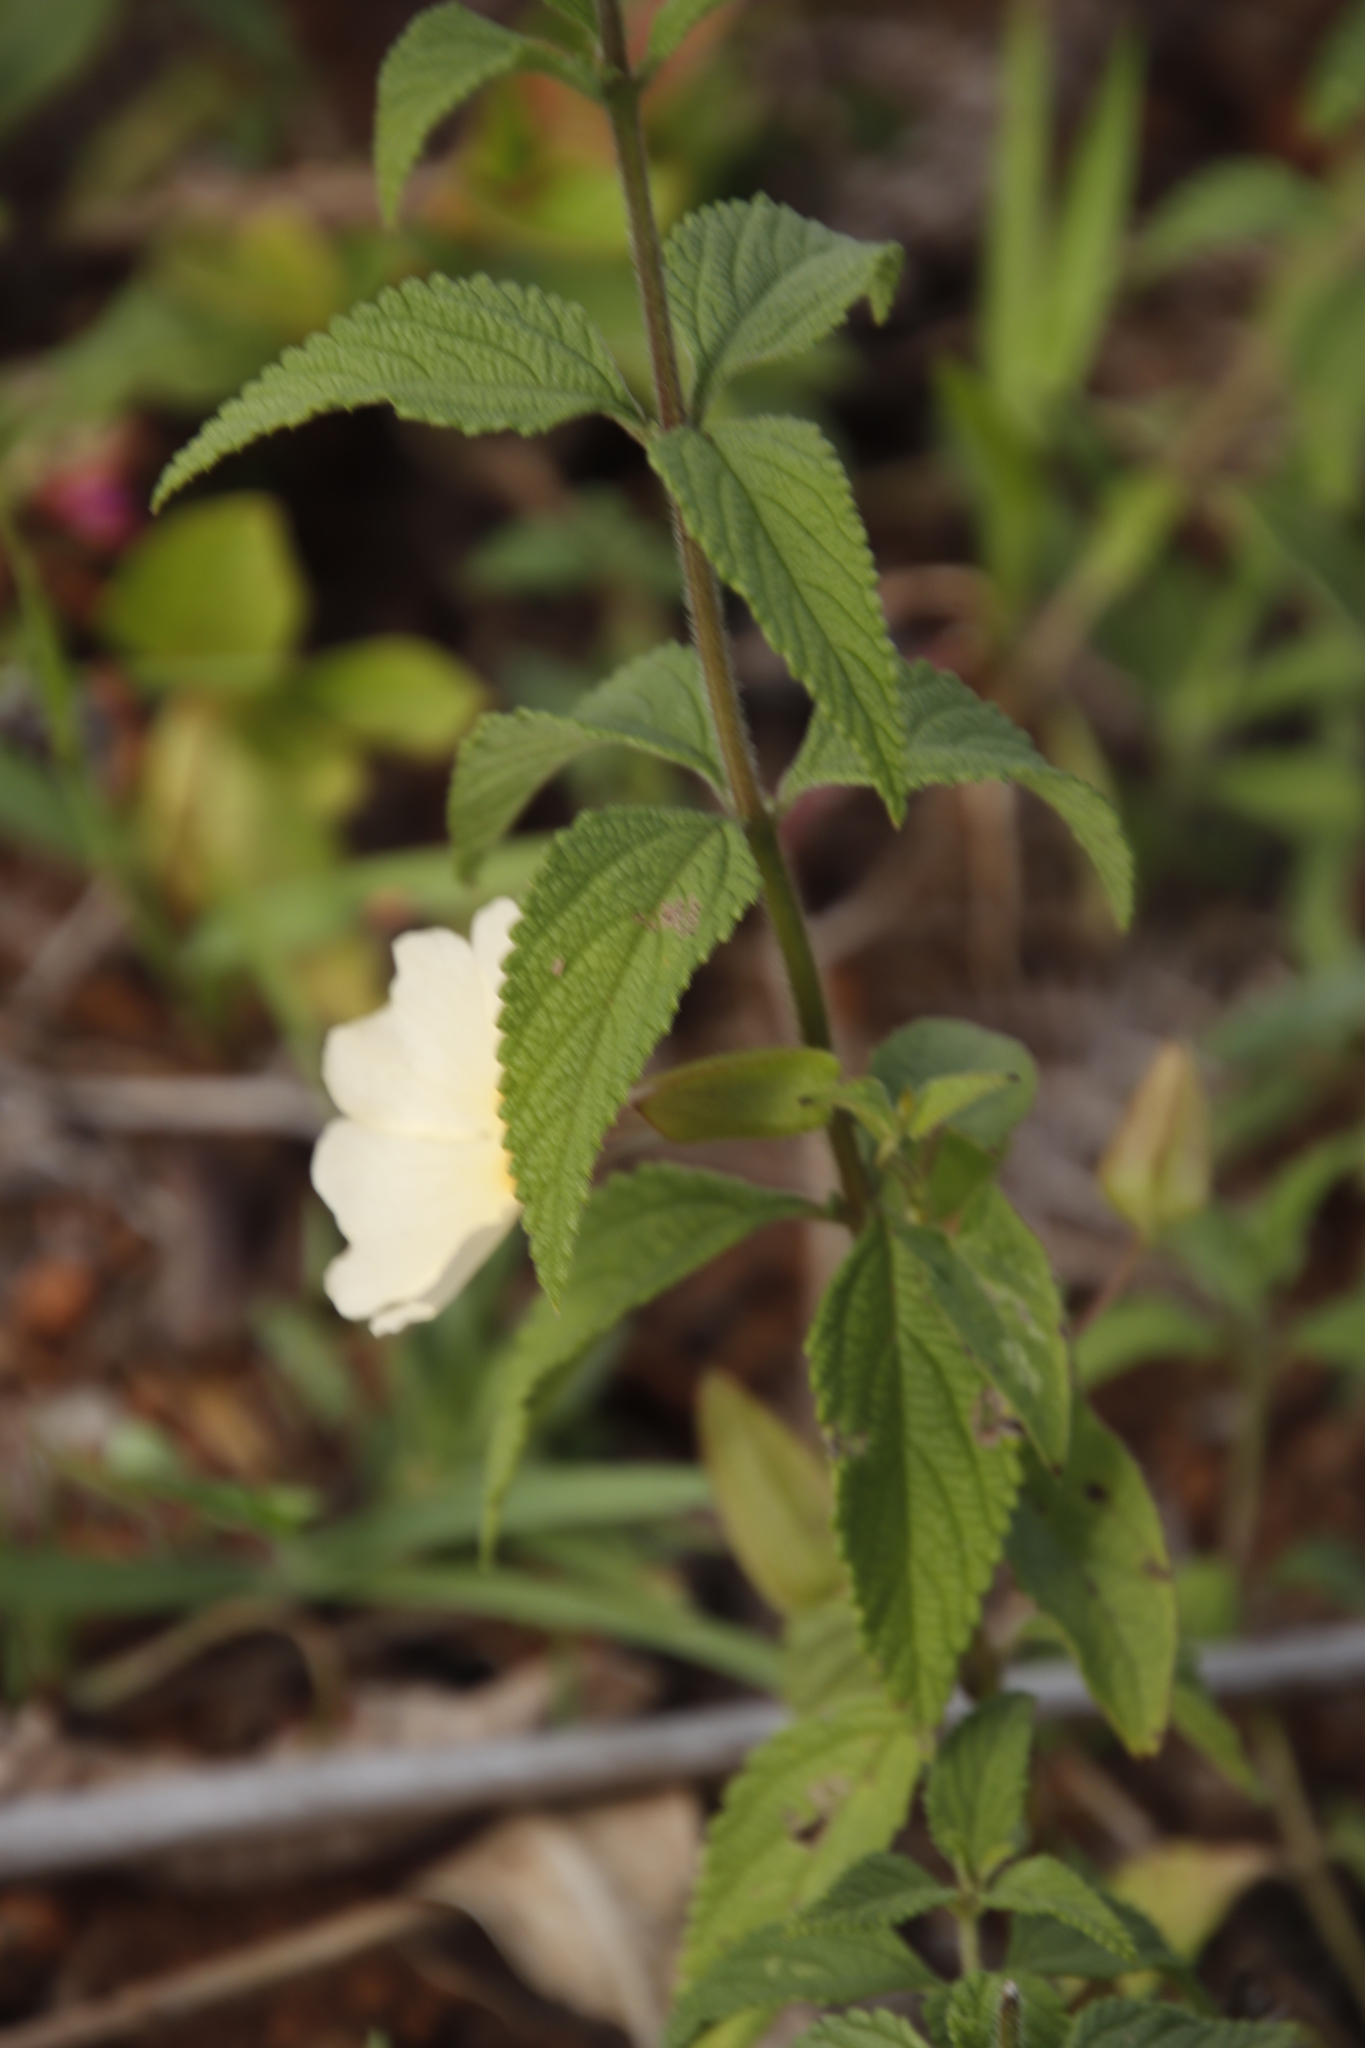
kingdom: Plantae
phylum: Tracheophyta
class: Magnoliopsida
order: Lamiales
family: Acanthaceae
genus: Thunbergia
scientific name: Thunbergia alata
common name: Blackeyed susan vine
